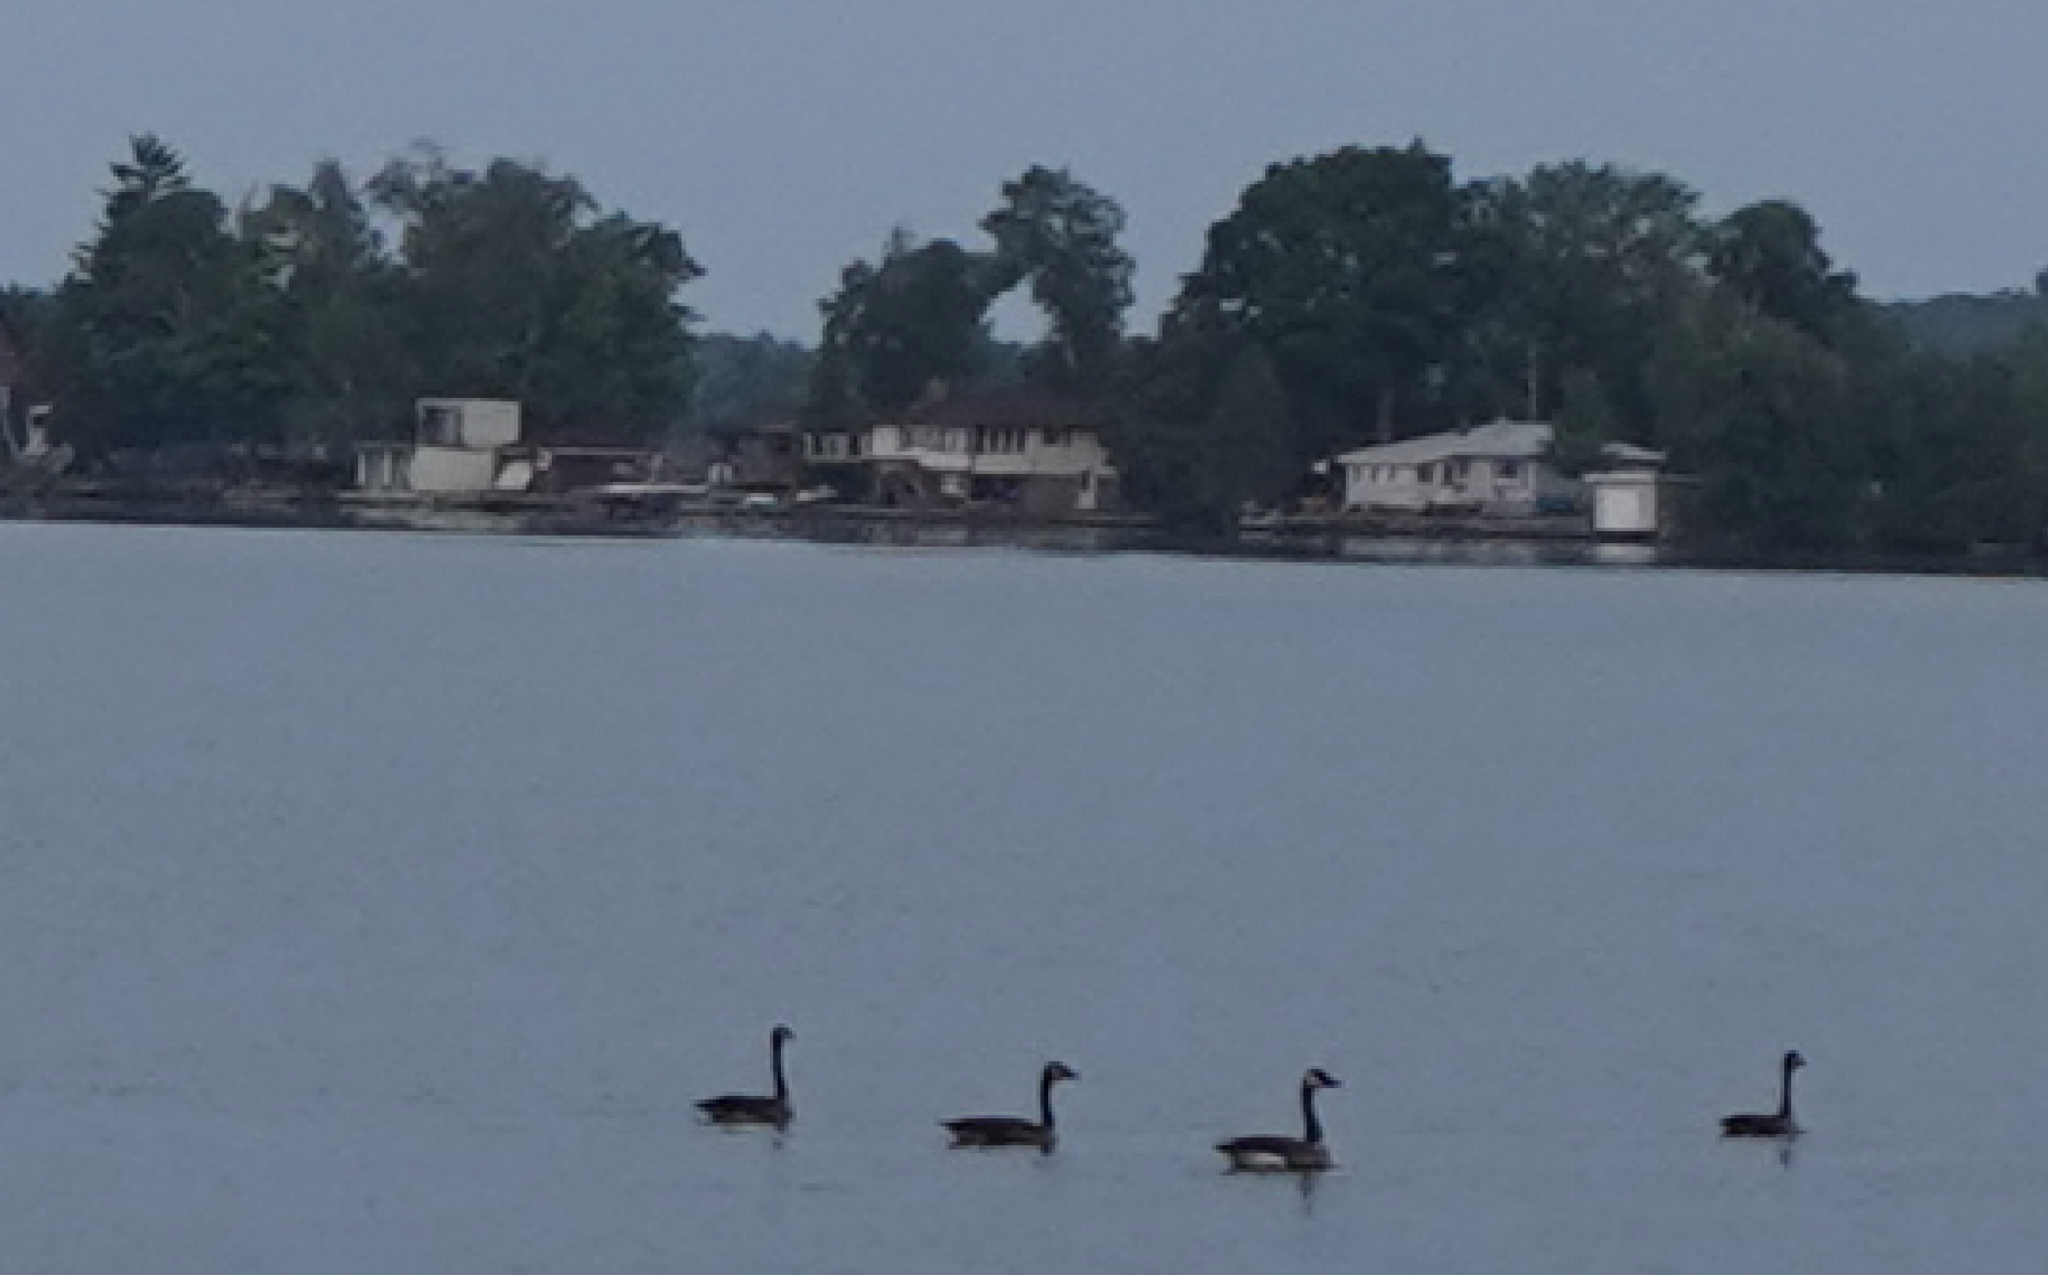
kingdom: Animalia
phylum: Chordata
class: Aves
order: Anseriformes
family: Anatidae
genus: Branta
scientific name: Branta canadensis
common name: Canada goose
